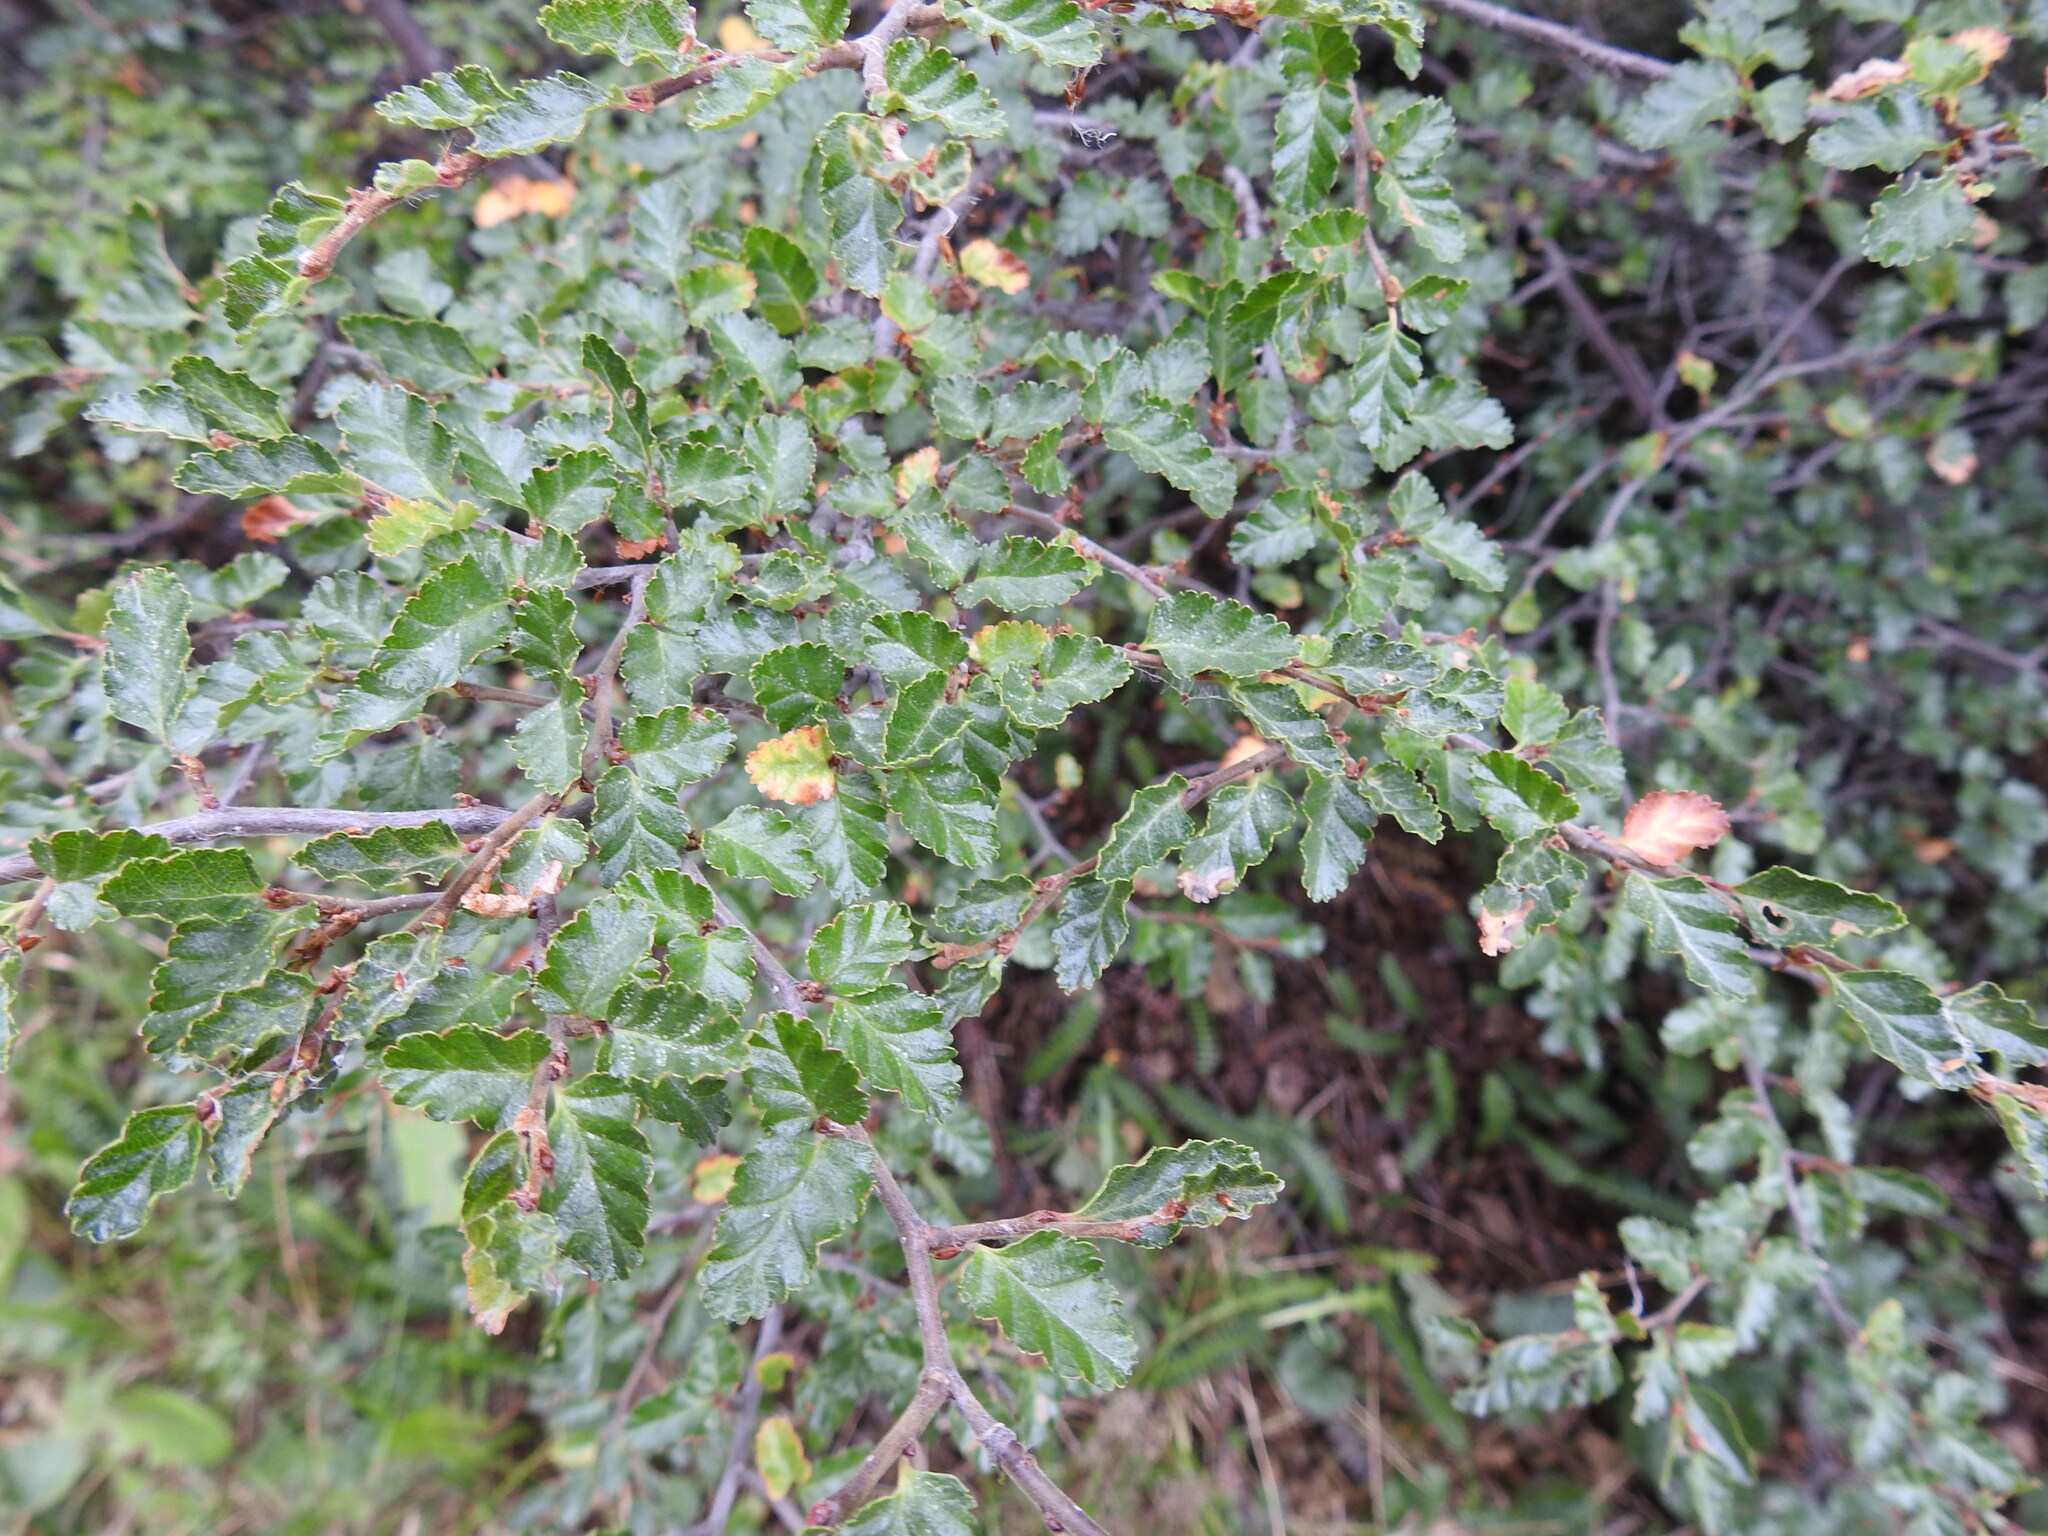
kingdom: Plantae
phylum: Tracheophyta
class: Magnoliopsida
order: Fagales
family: Nothofagaceae
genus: Nothofagus
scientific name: Nothofagus antarctica
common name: Antarctic beech
